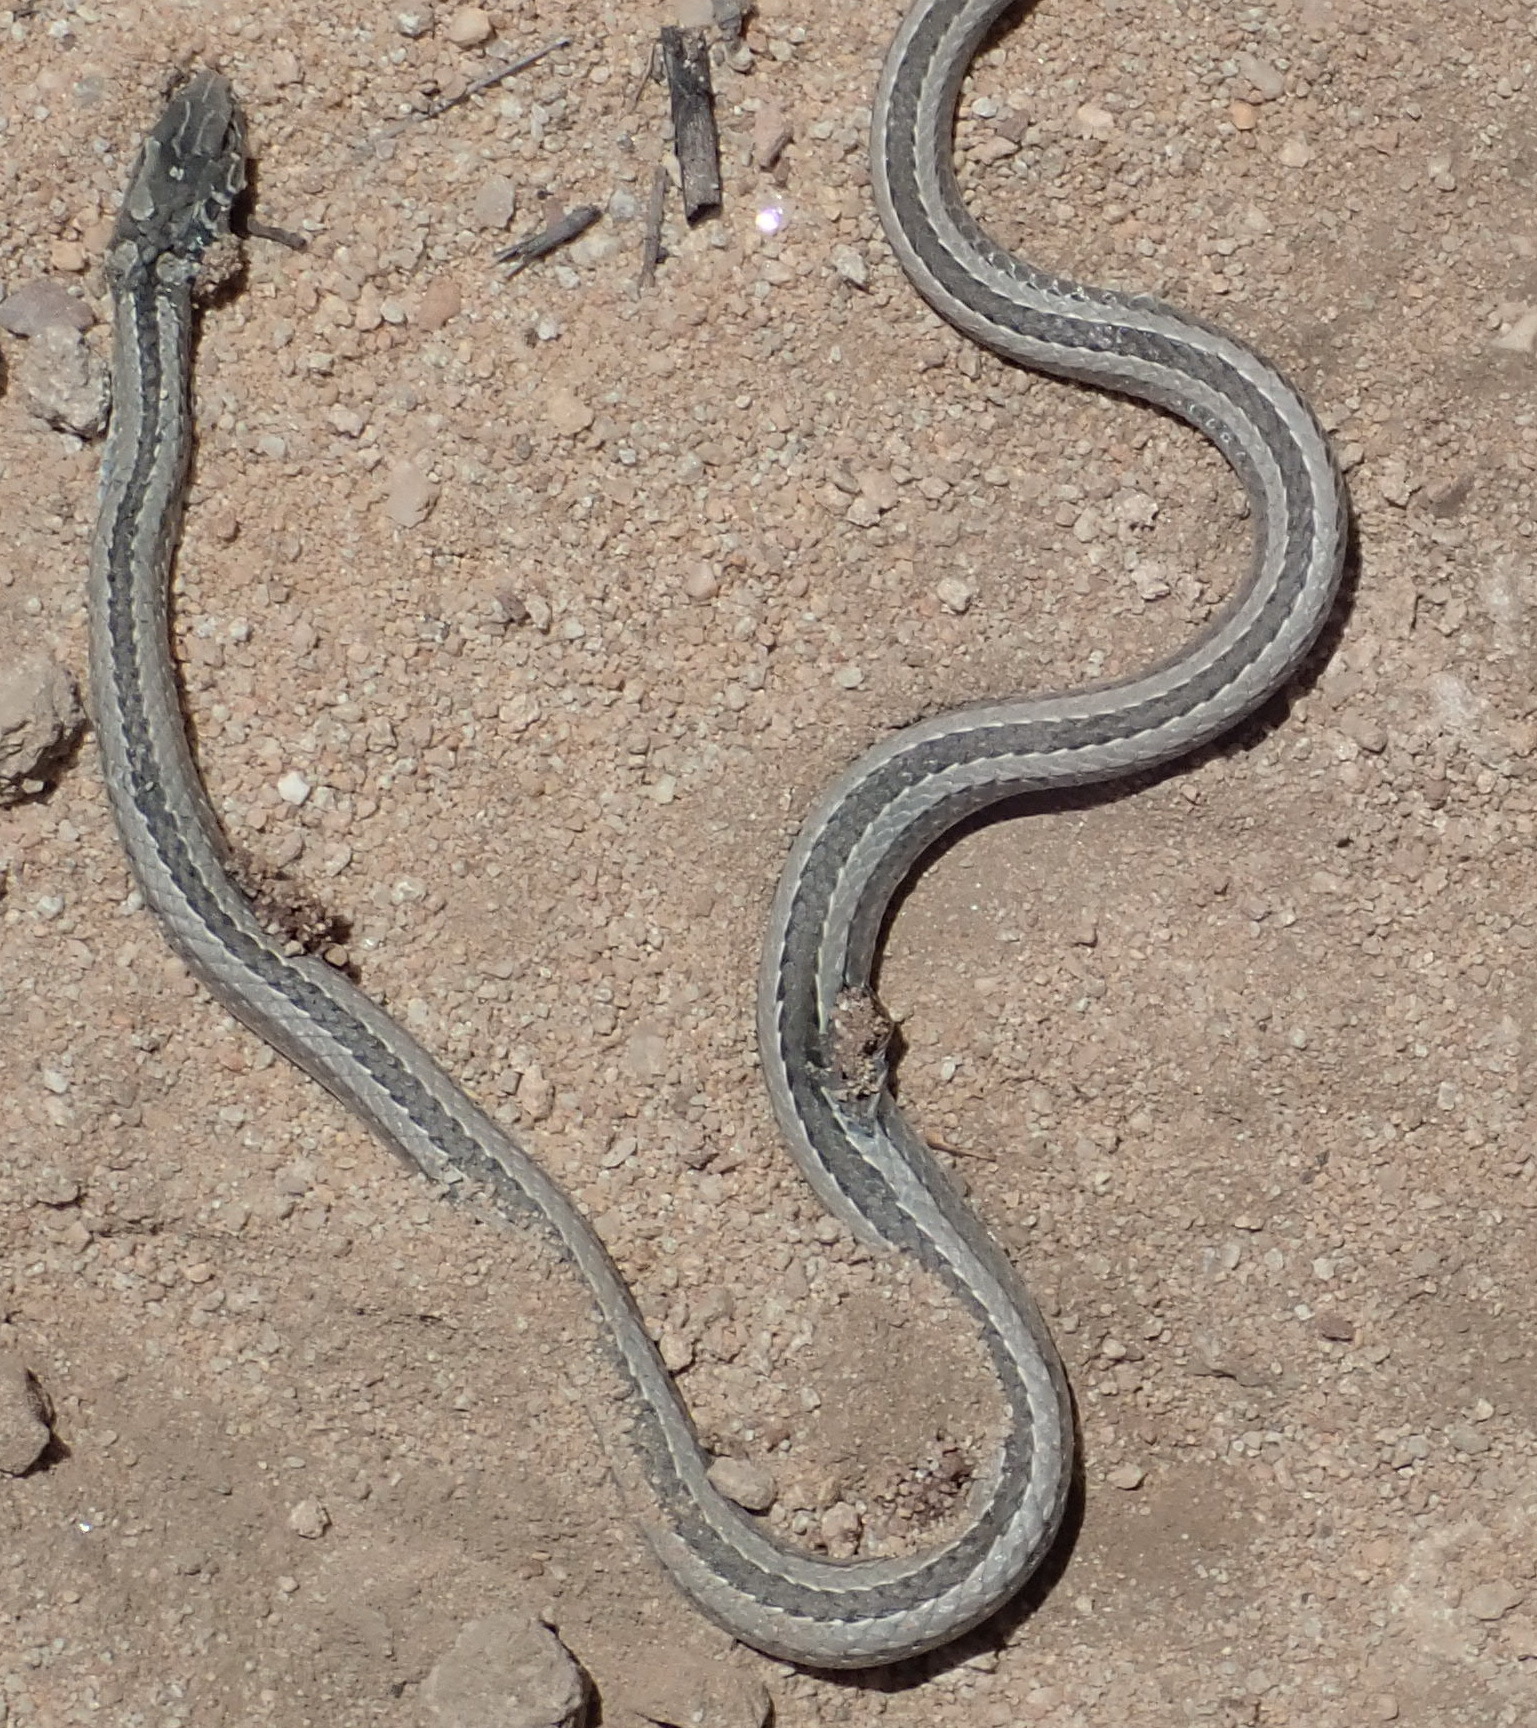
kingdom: Animalia
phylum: Chordata
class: Squamata
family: Psammophiidae
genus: Psammophis
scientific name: Psammophis crucifer
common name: Cross-marked grass snake
